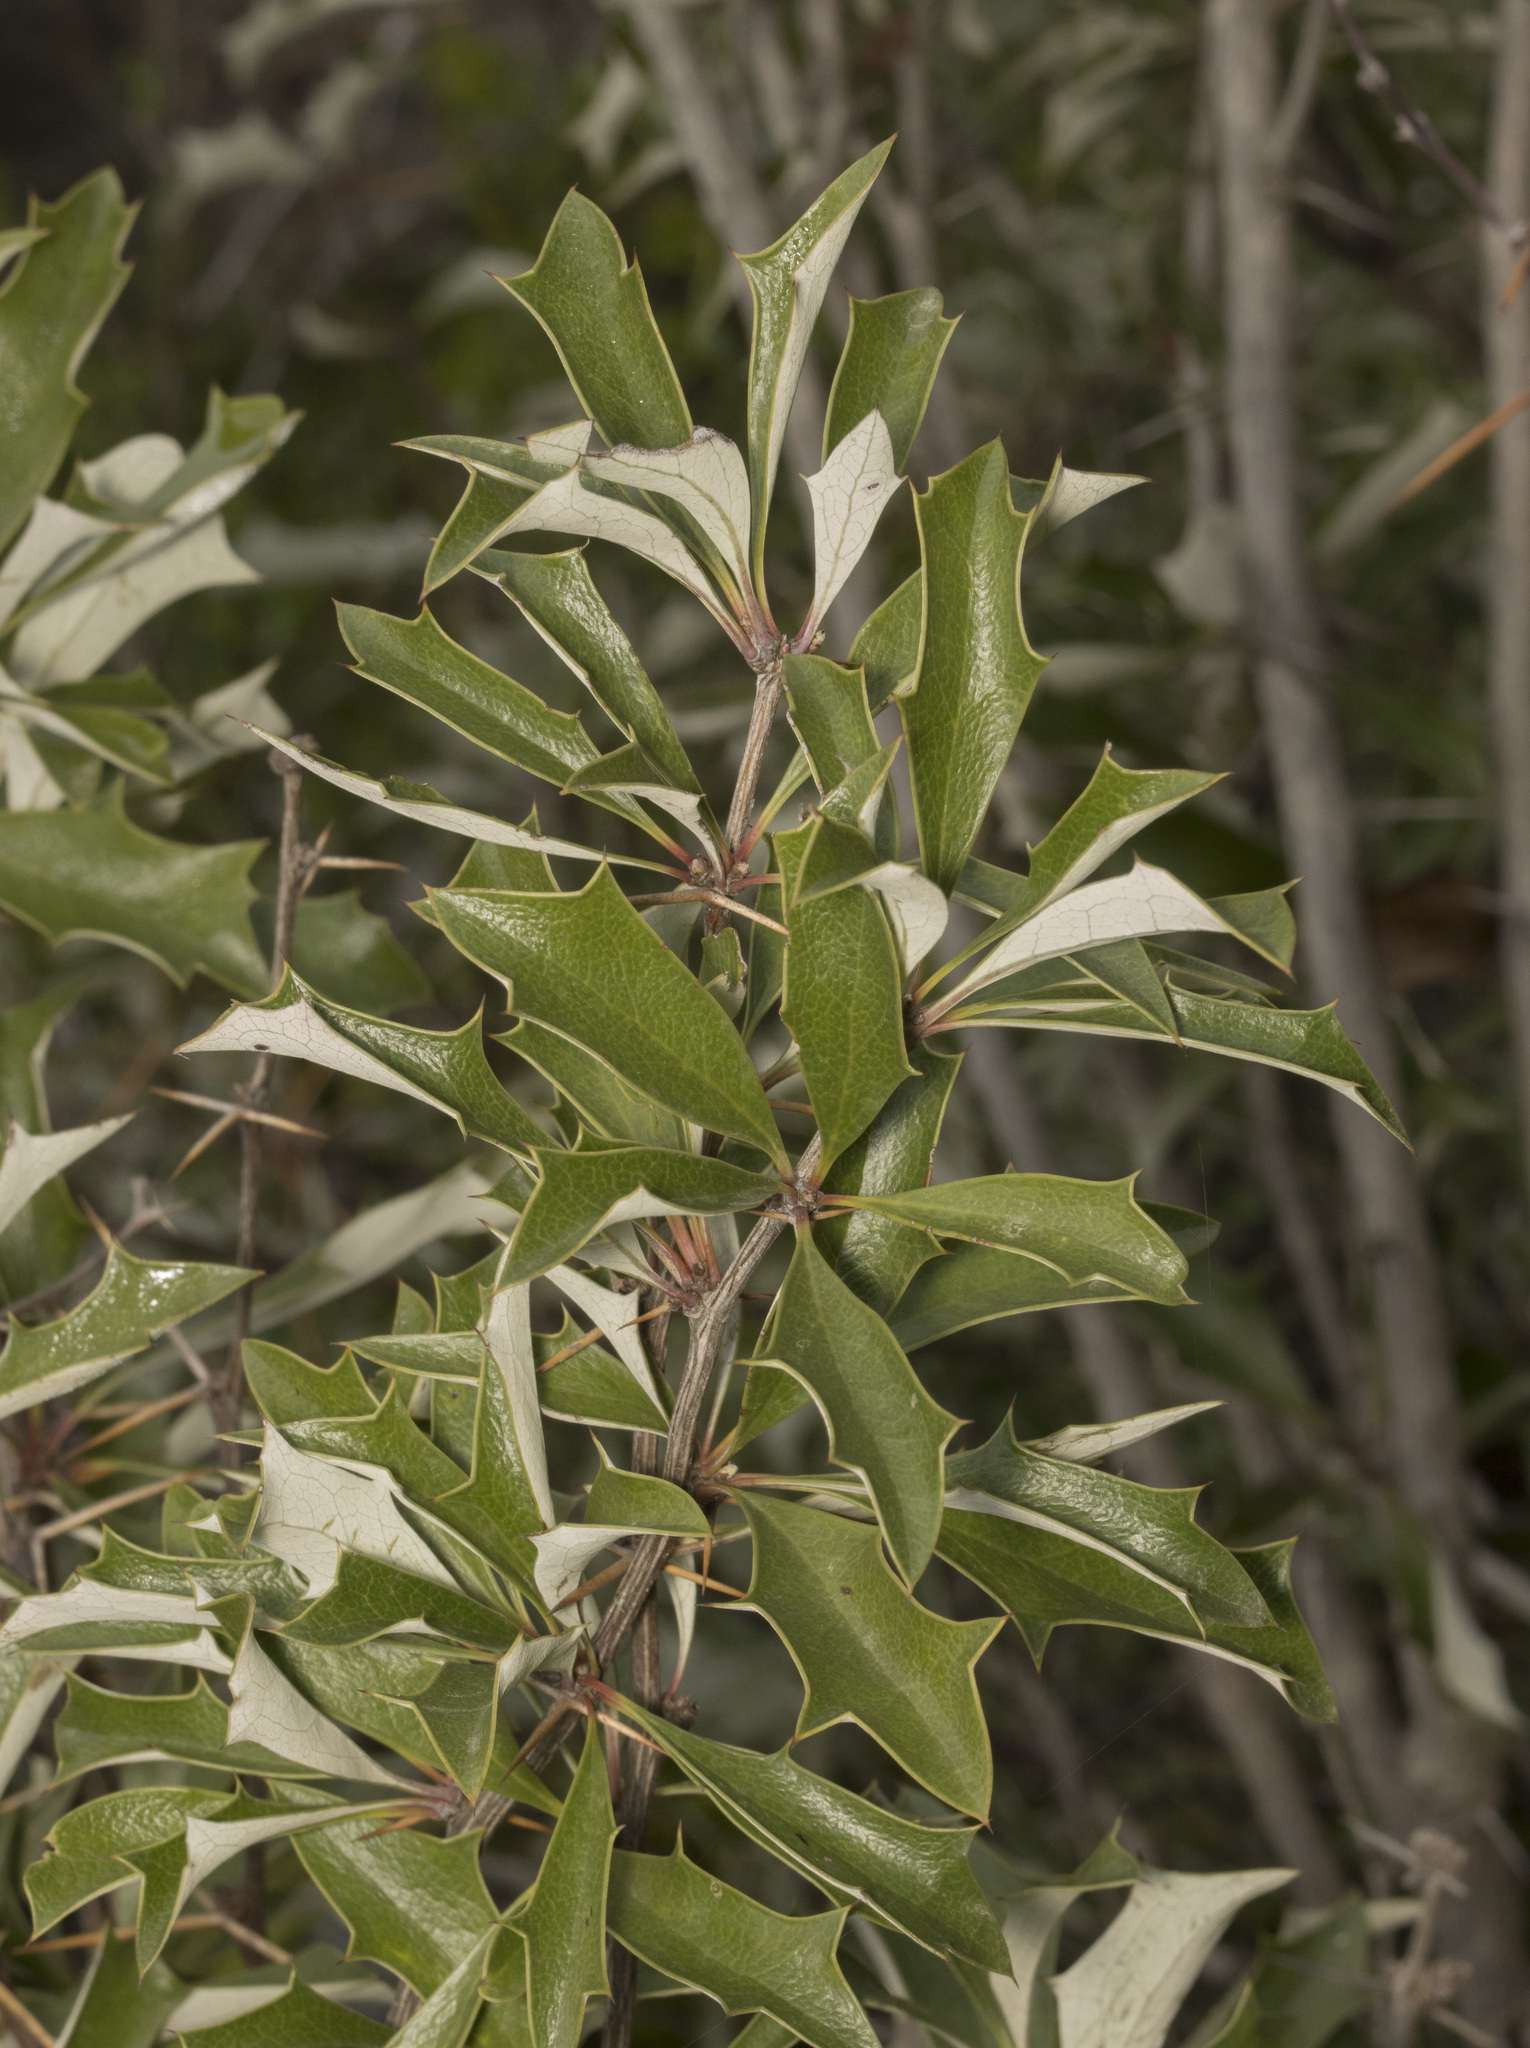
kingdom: Plantae
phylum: Tracheophyta
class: Magnoliopsida
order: Ranunculales
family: Berberidaceae
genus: Berberis
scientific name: Berberis chilensis
